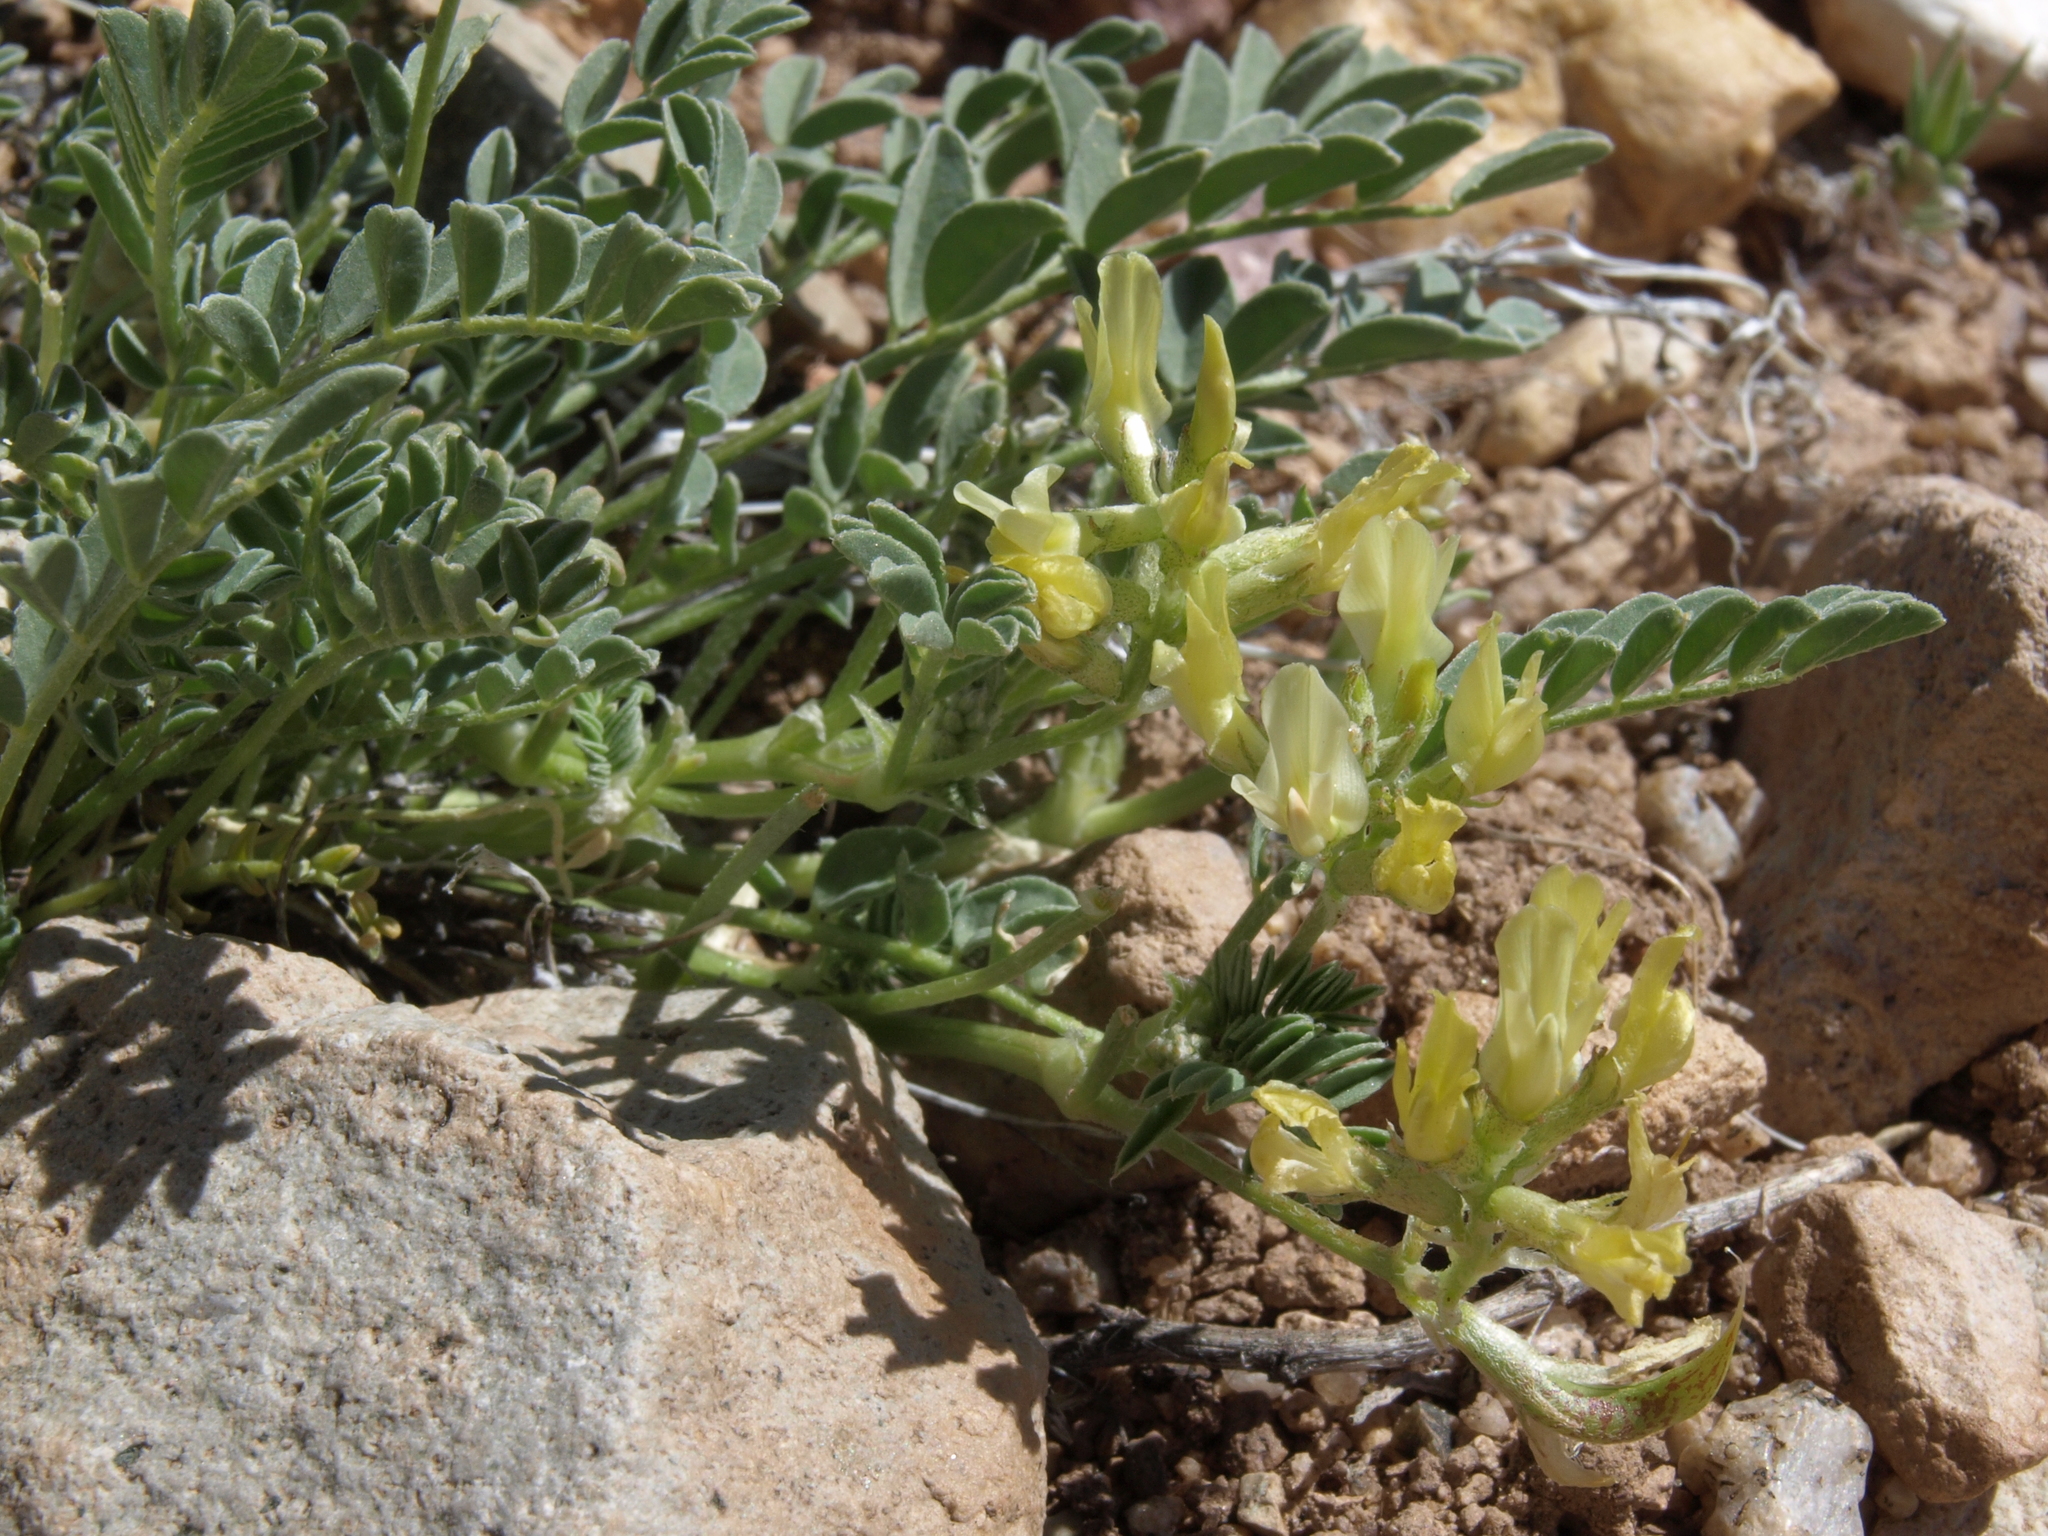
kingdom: Plantae
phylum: Tracheophyta
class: Magnoliopsida
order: Fabales
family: Fabaceae
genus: Astragalus
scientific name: Astragalus lentiginosus
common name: Freckled milkvetch
